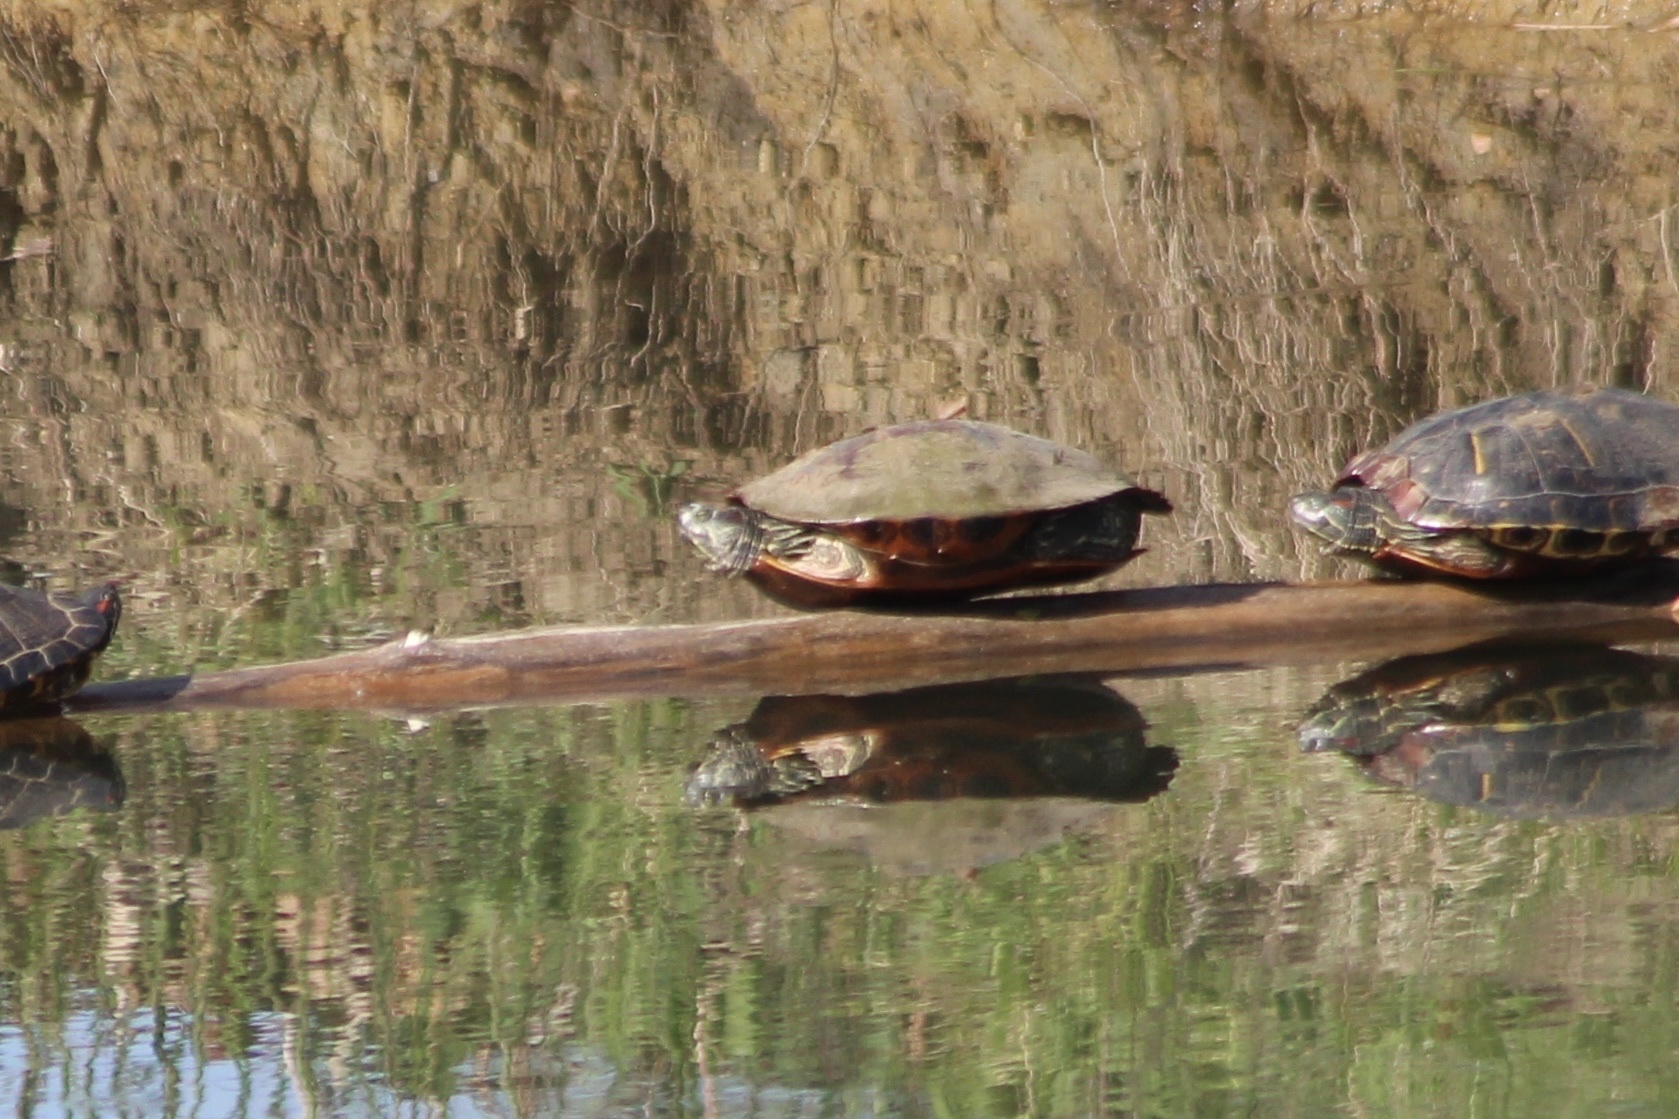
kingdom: Animalia
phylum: Chordata
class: Testudines
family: Emydidae
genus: Chrysemys
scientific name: Chrysemys picta
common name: Painted turtle
